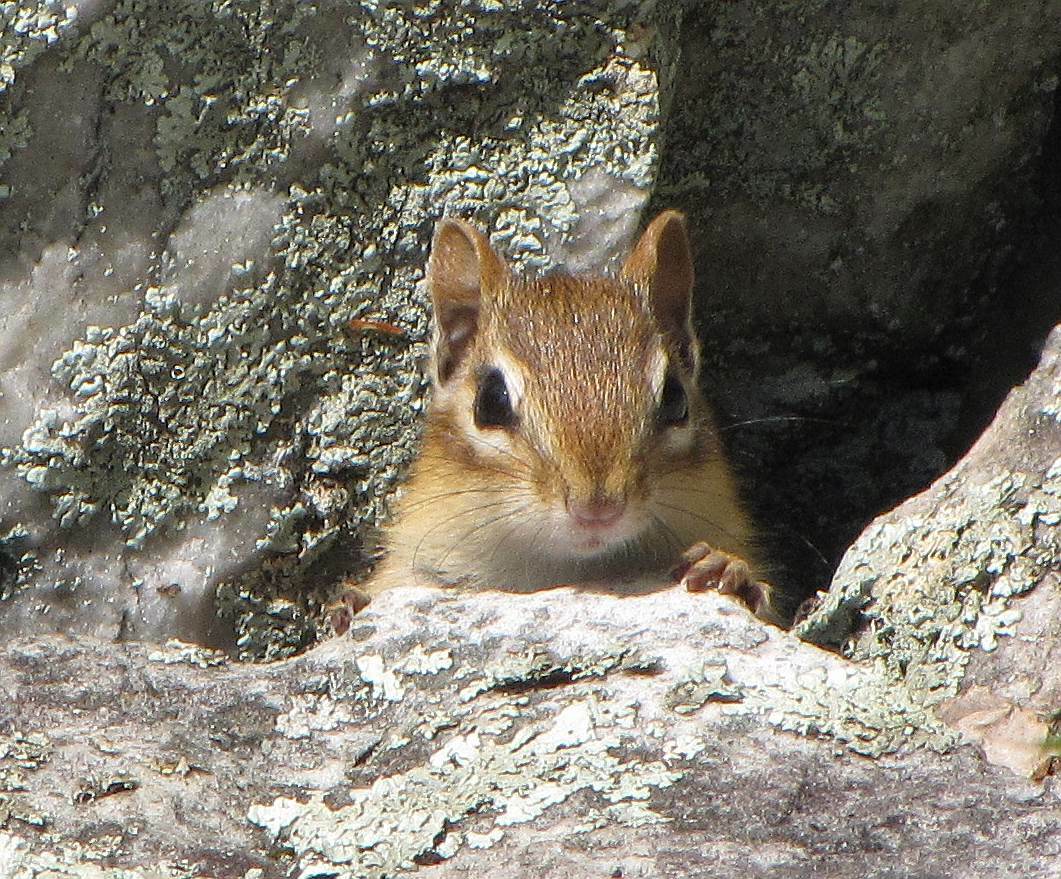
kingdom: Animalia
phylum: Chordata
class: Mammalia
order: Rodentia
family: Sciuridae
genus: Tamias
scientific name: Tamias striatus
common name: Eastern chipmunk
